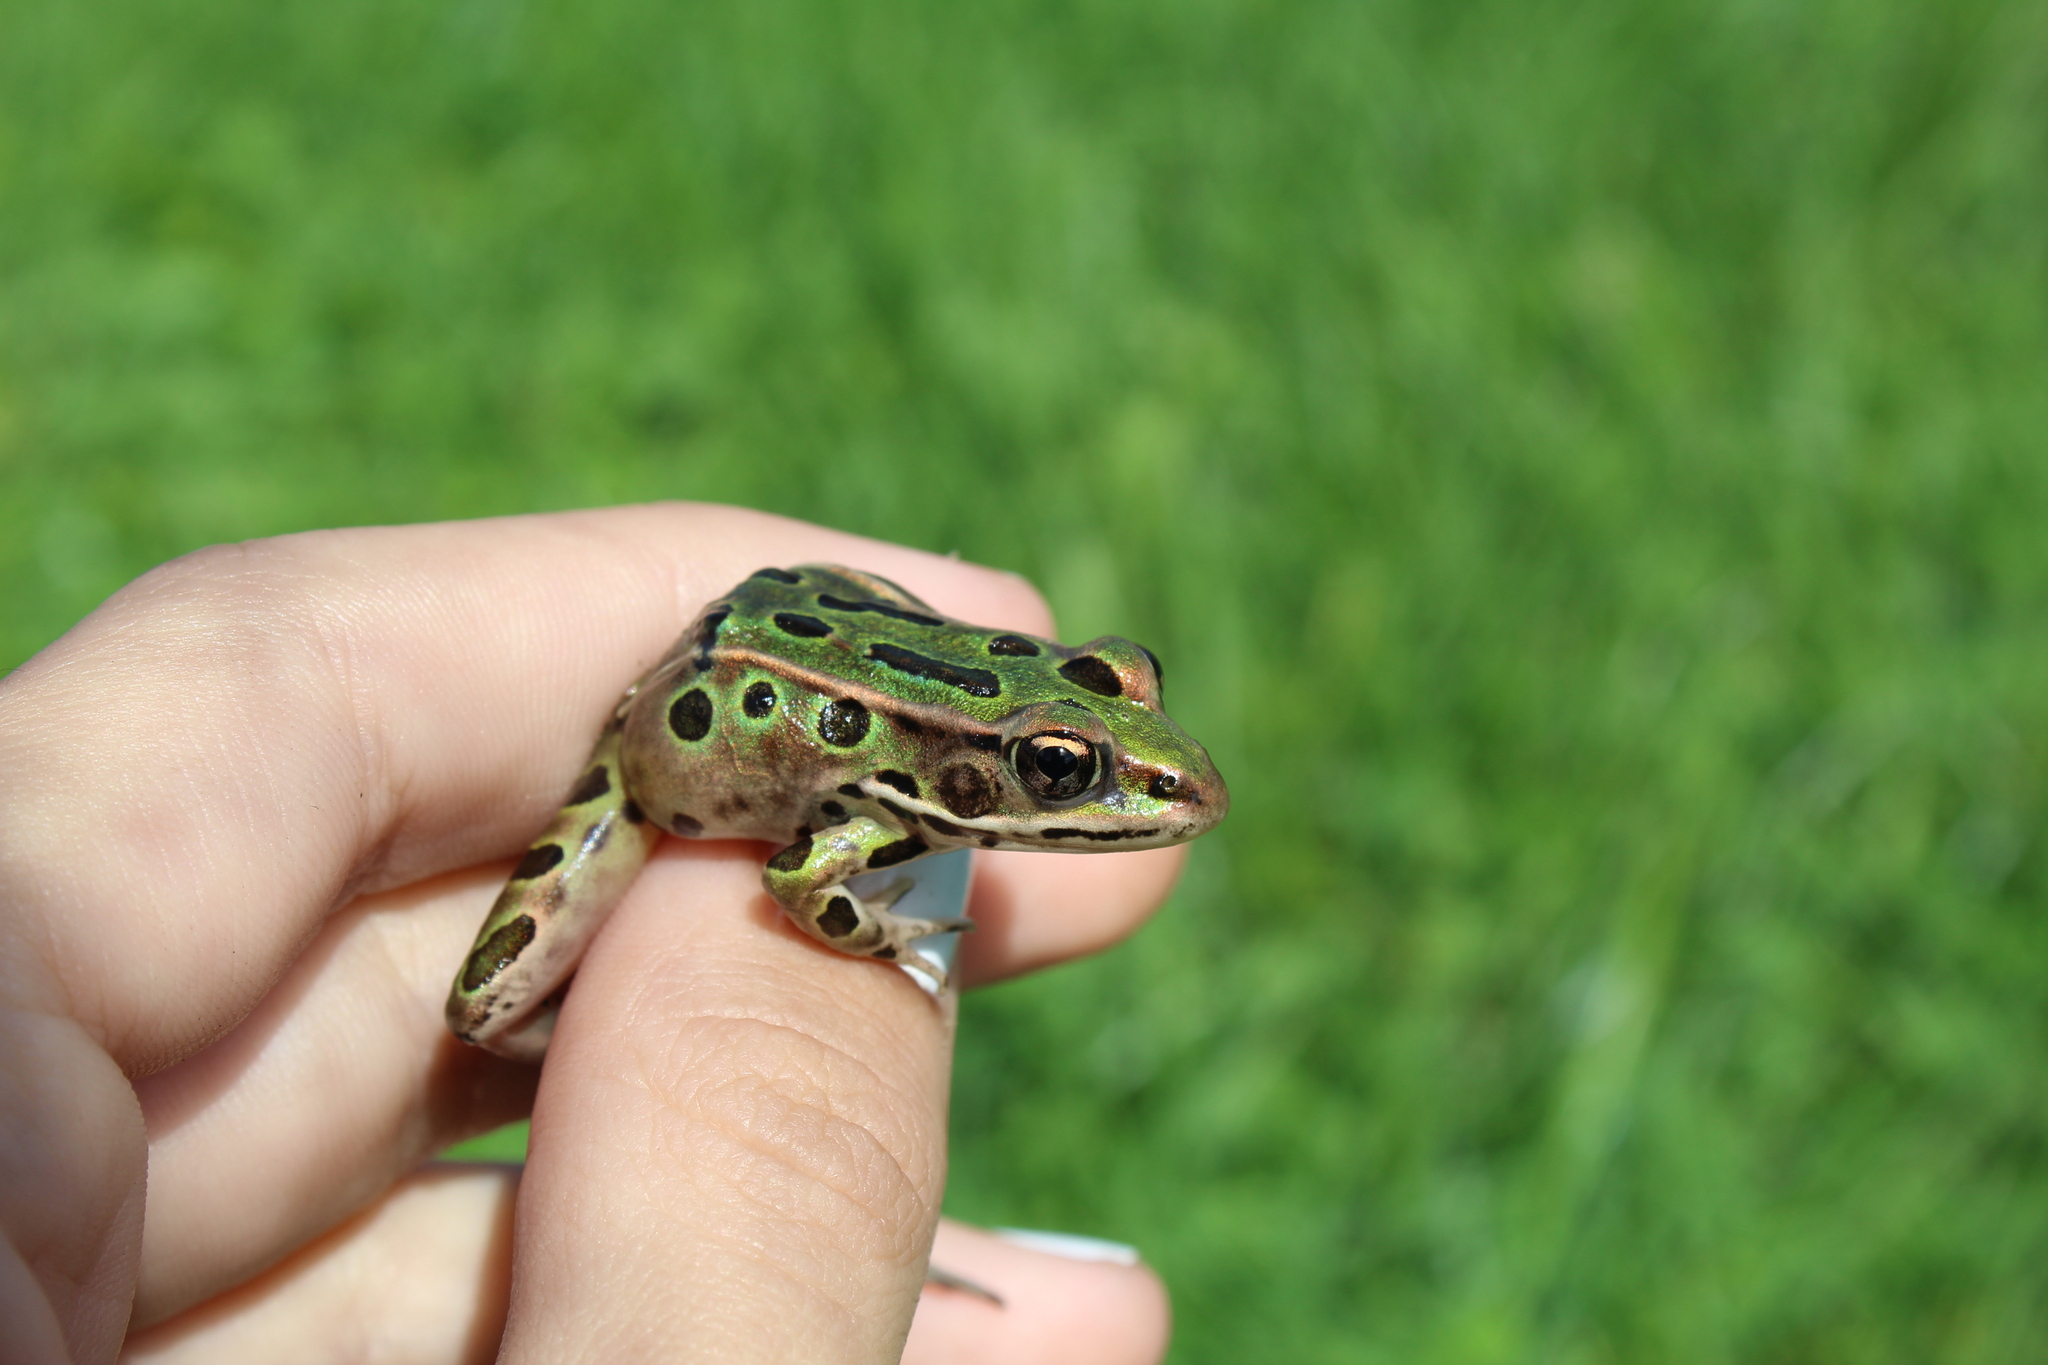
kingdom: Animalia
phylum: Chordata
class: Amphibia
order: Anura
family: Ranidae
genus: Lithobates
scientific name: Lithobates pipiens
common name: Northern leopard frog
